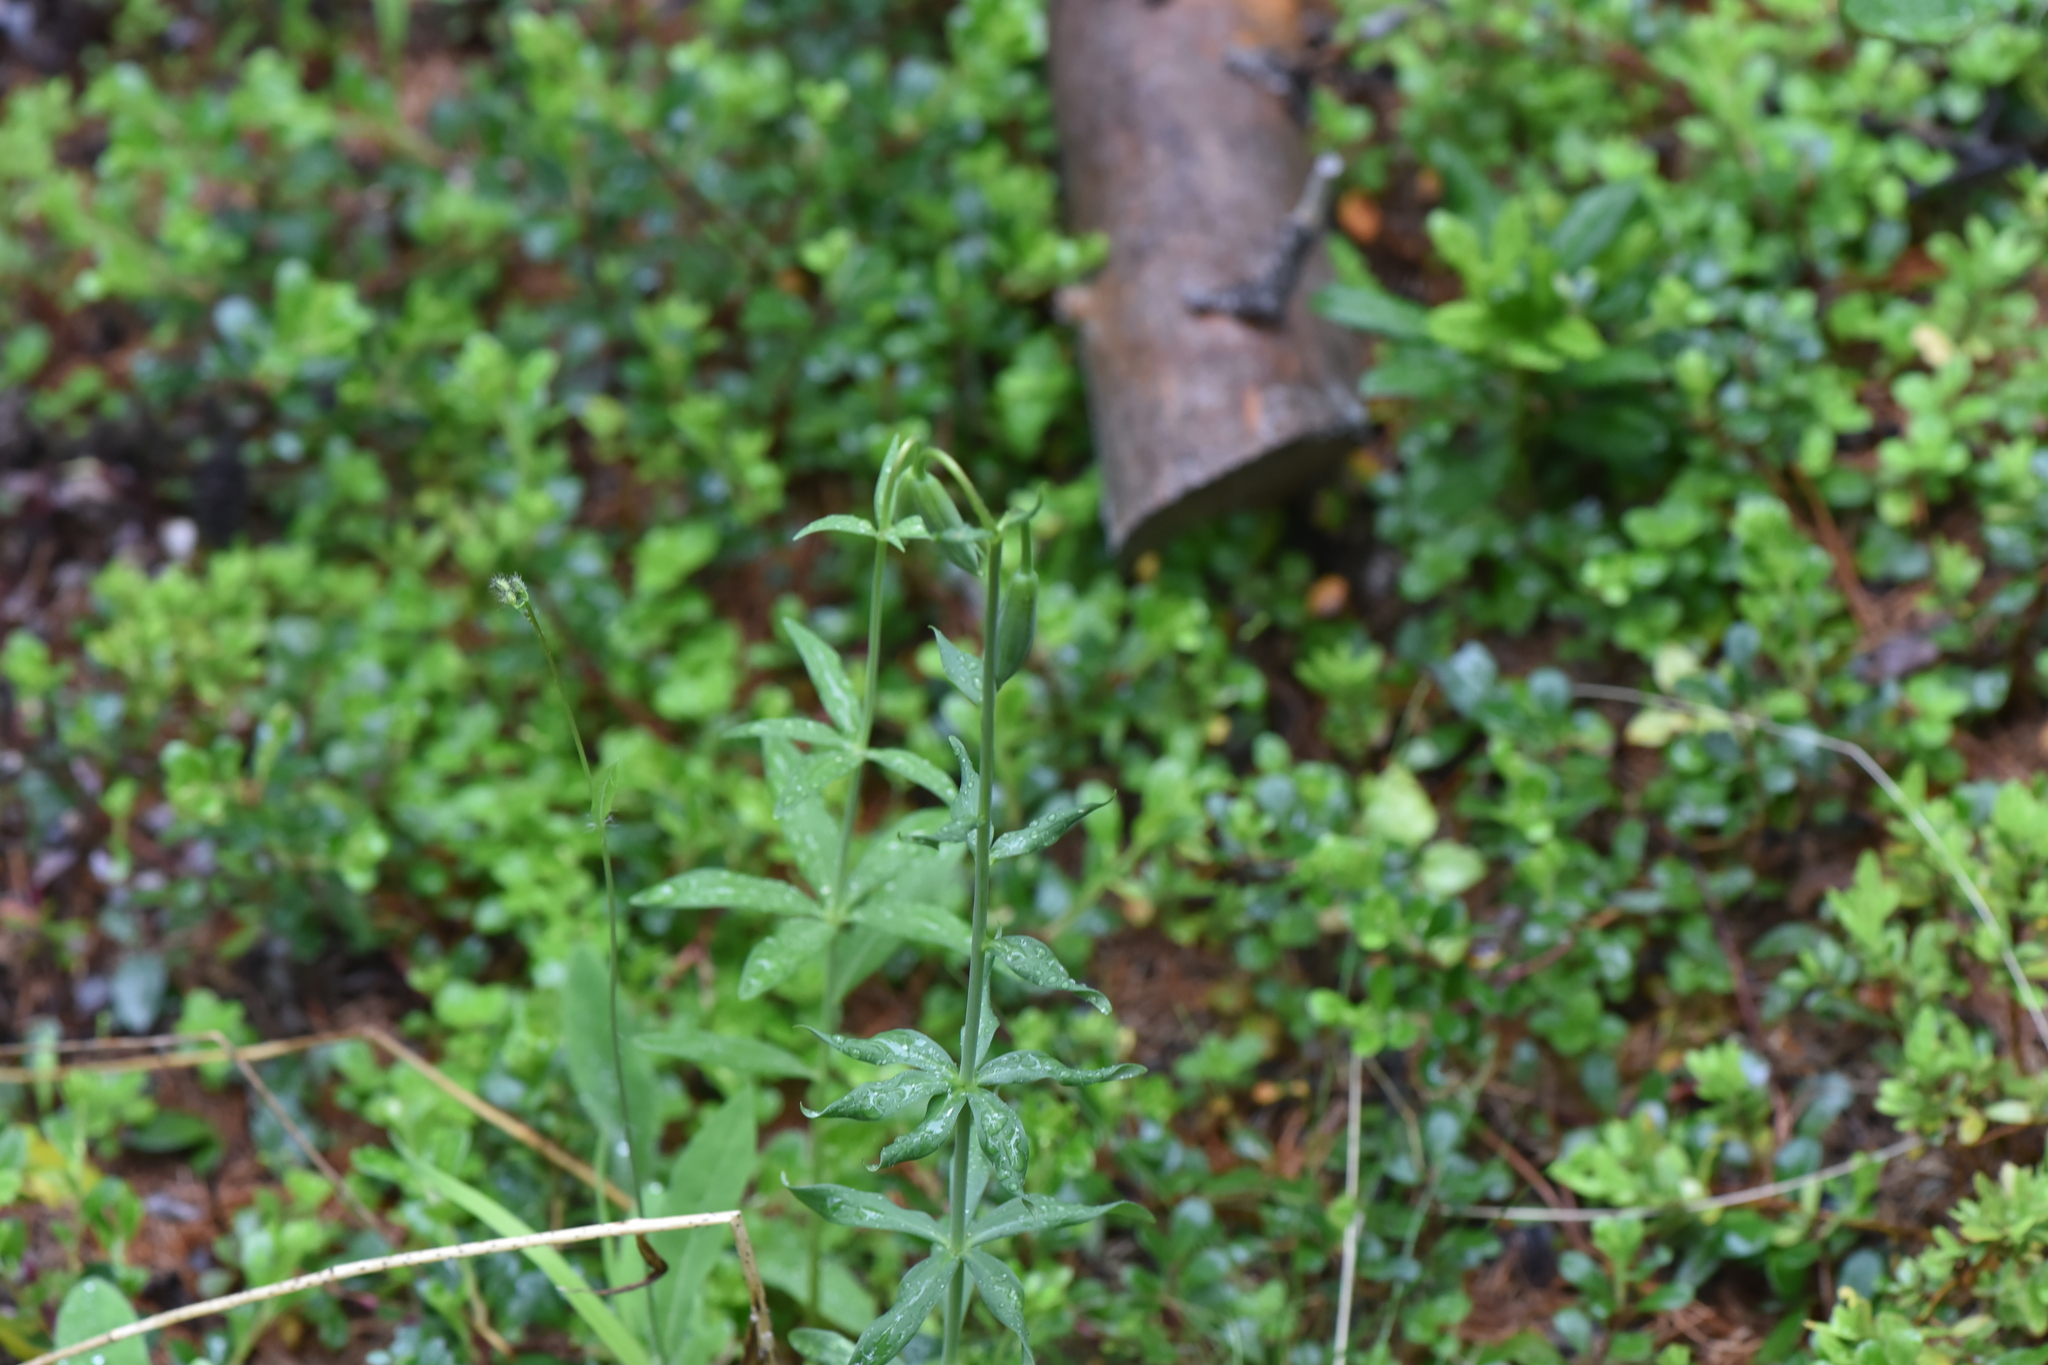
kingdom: Plantae
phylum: Tracheophyta
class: Liliopsida
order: Liliales
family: Liliaceae
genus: Lilium
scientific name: Lilium columbianum
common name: Columbia lily
